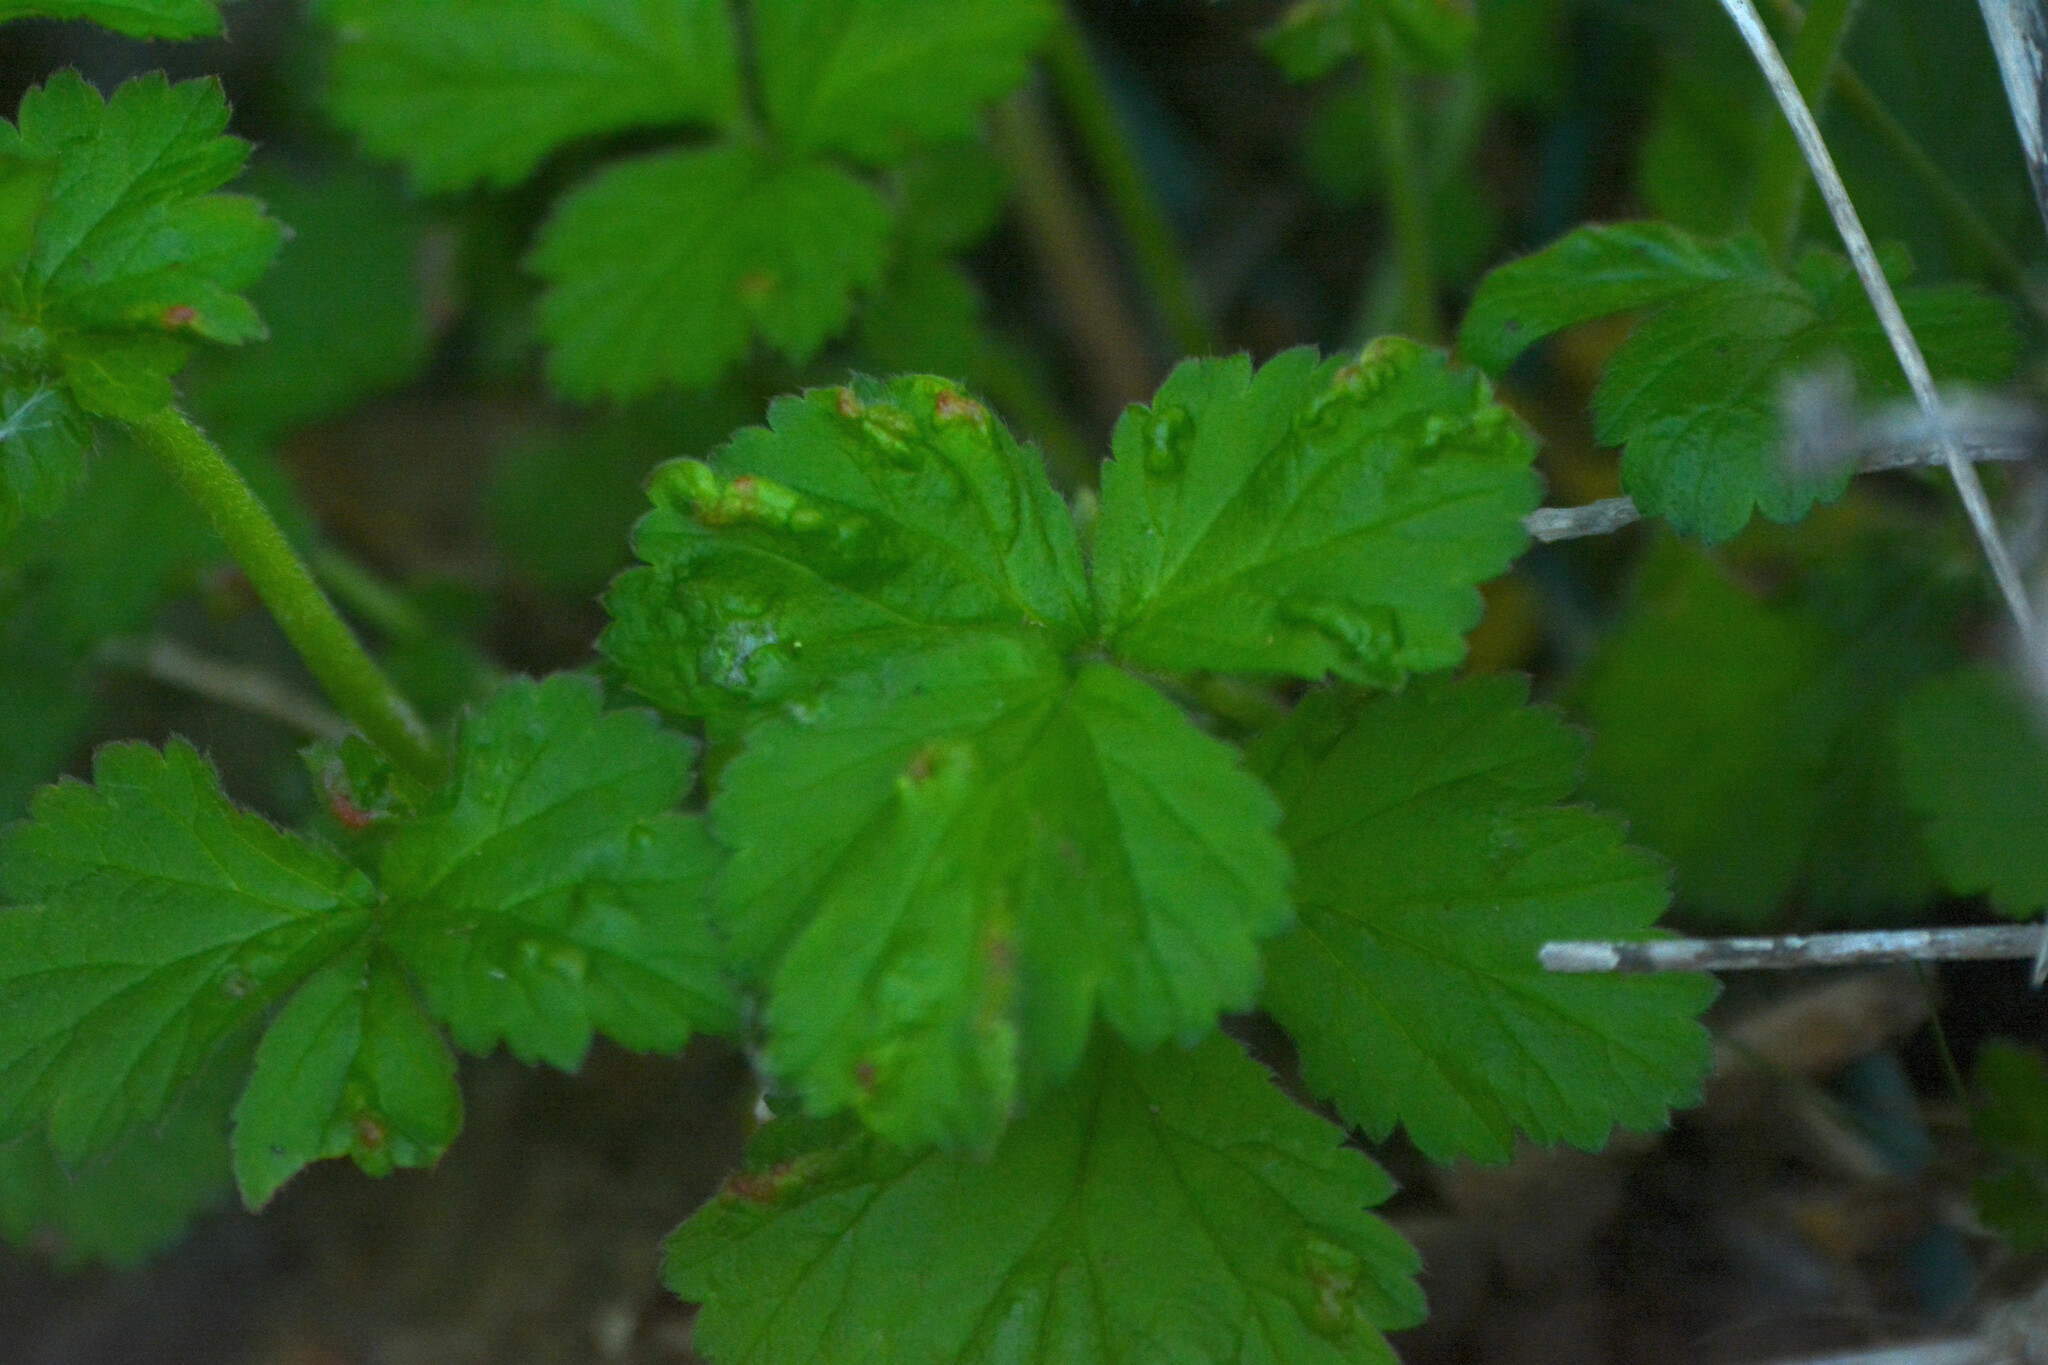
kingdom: Plantae
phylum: Tracheophyta
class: Magnoliopsida
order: Rosales
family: Rosaceae
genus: Geum
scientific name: Geum urbanum
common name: Wood avens
